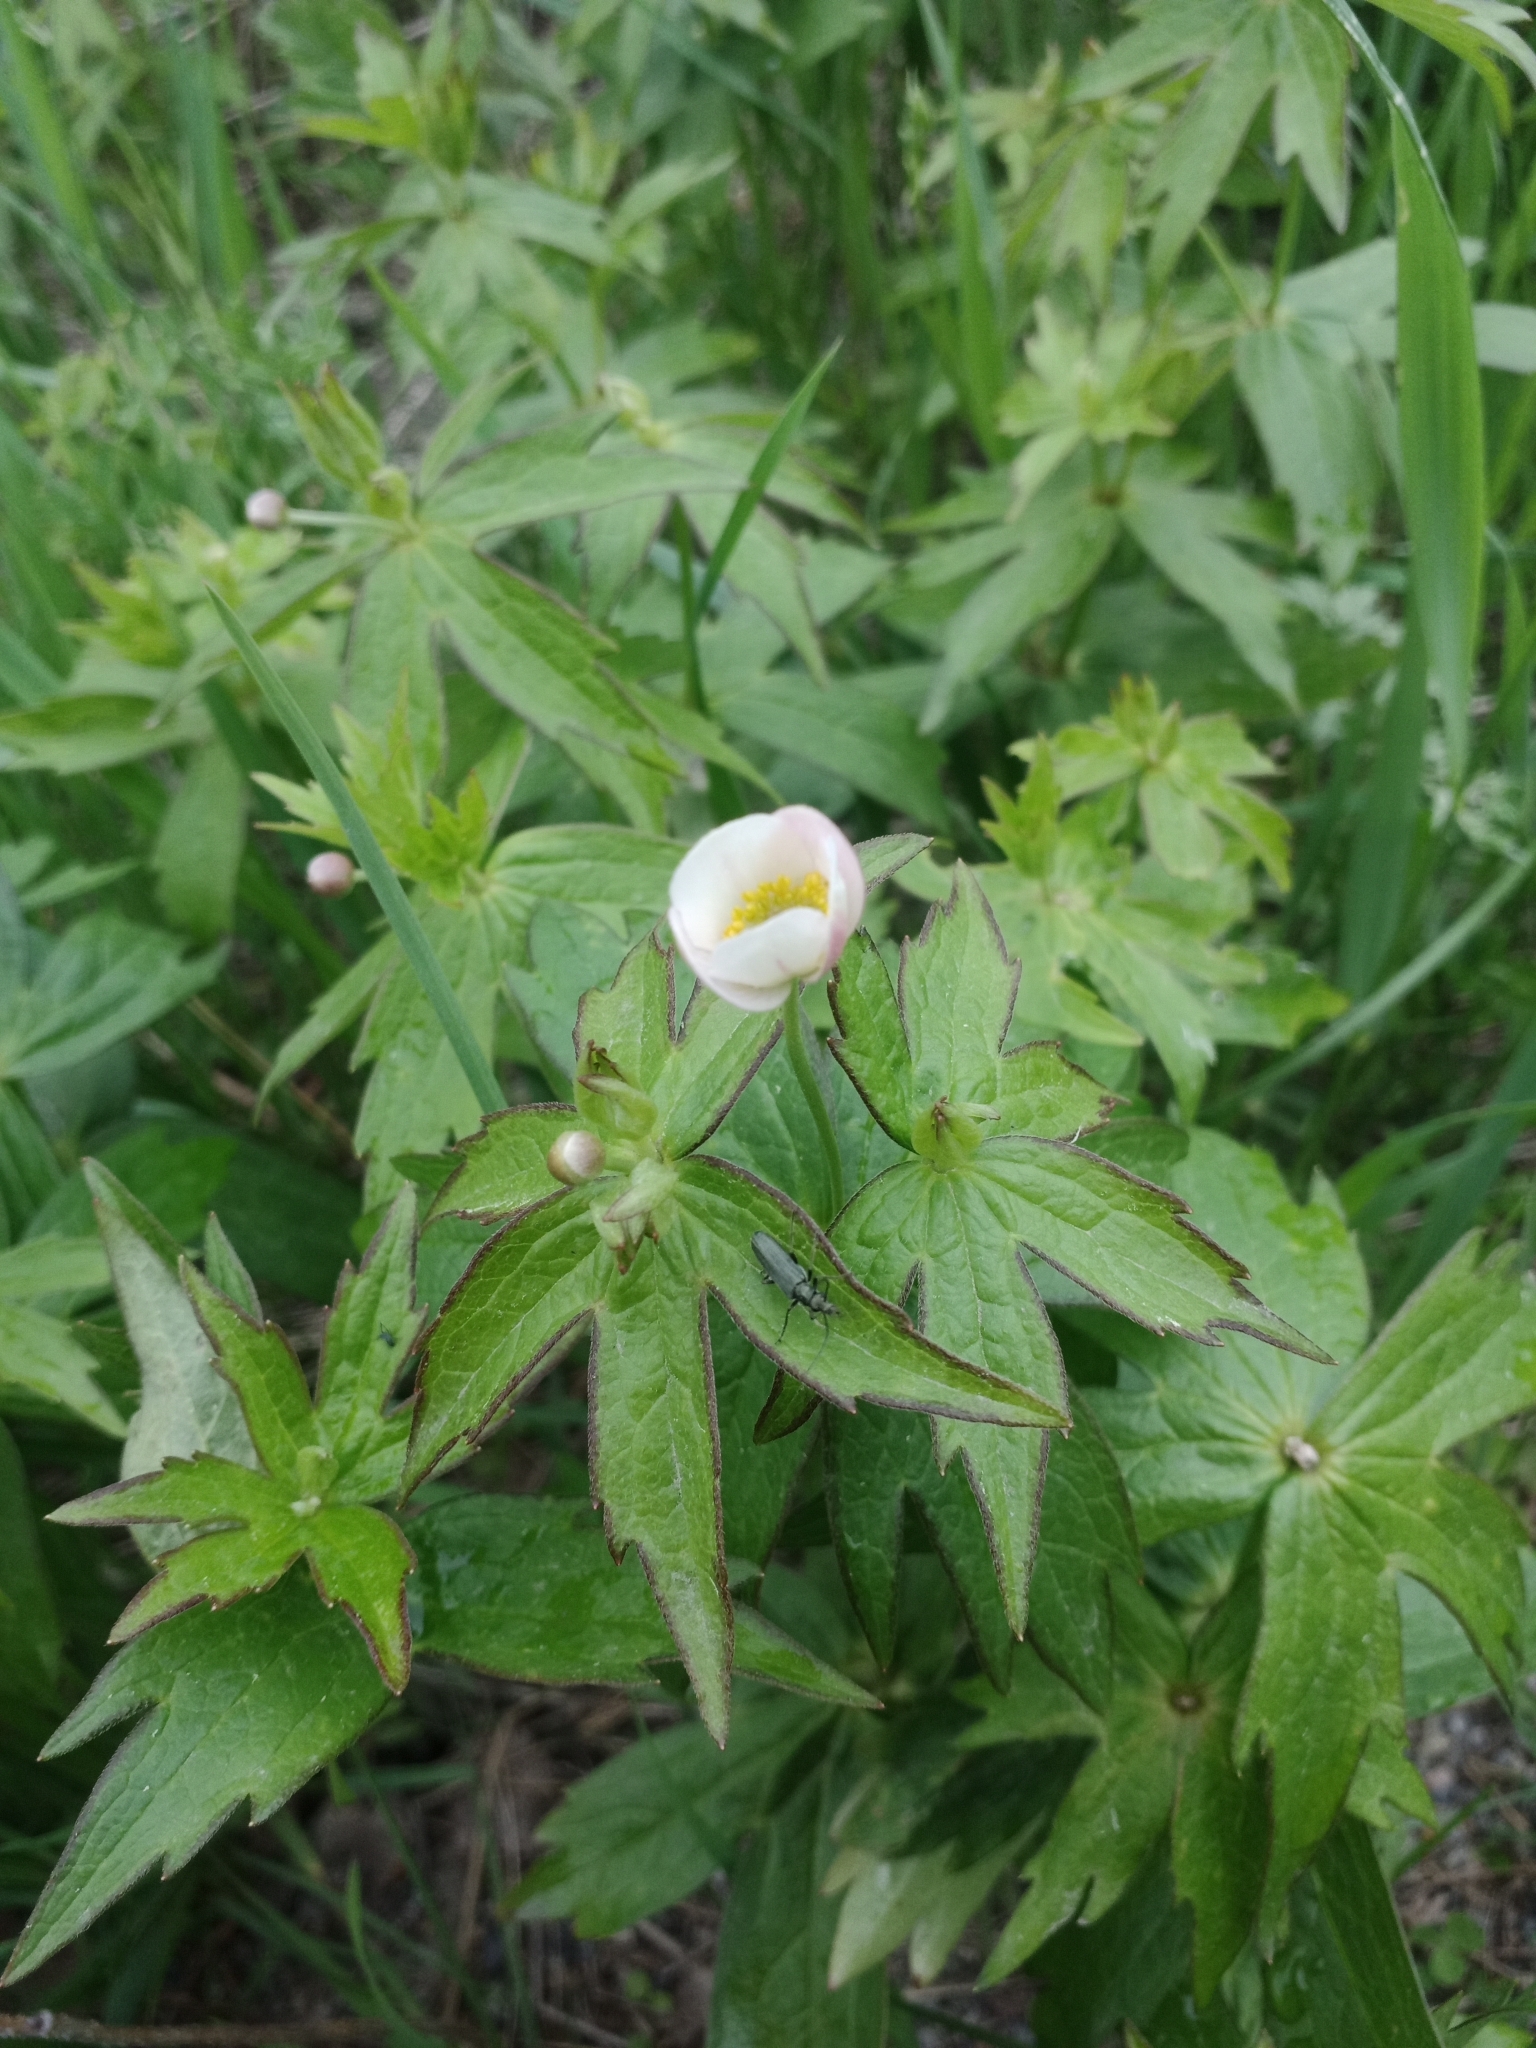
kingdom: Plantae
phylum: Tracheophyta
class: Magnoliopsida
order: Ranunculales
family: Ranunculaceae
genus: Anemonastrum
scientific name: Anemonastrum dichotomum
